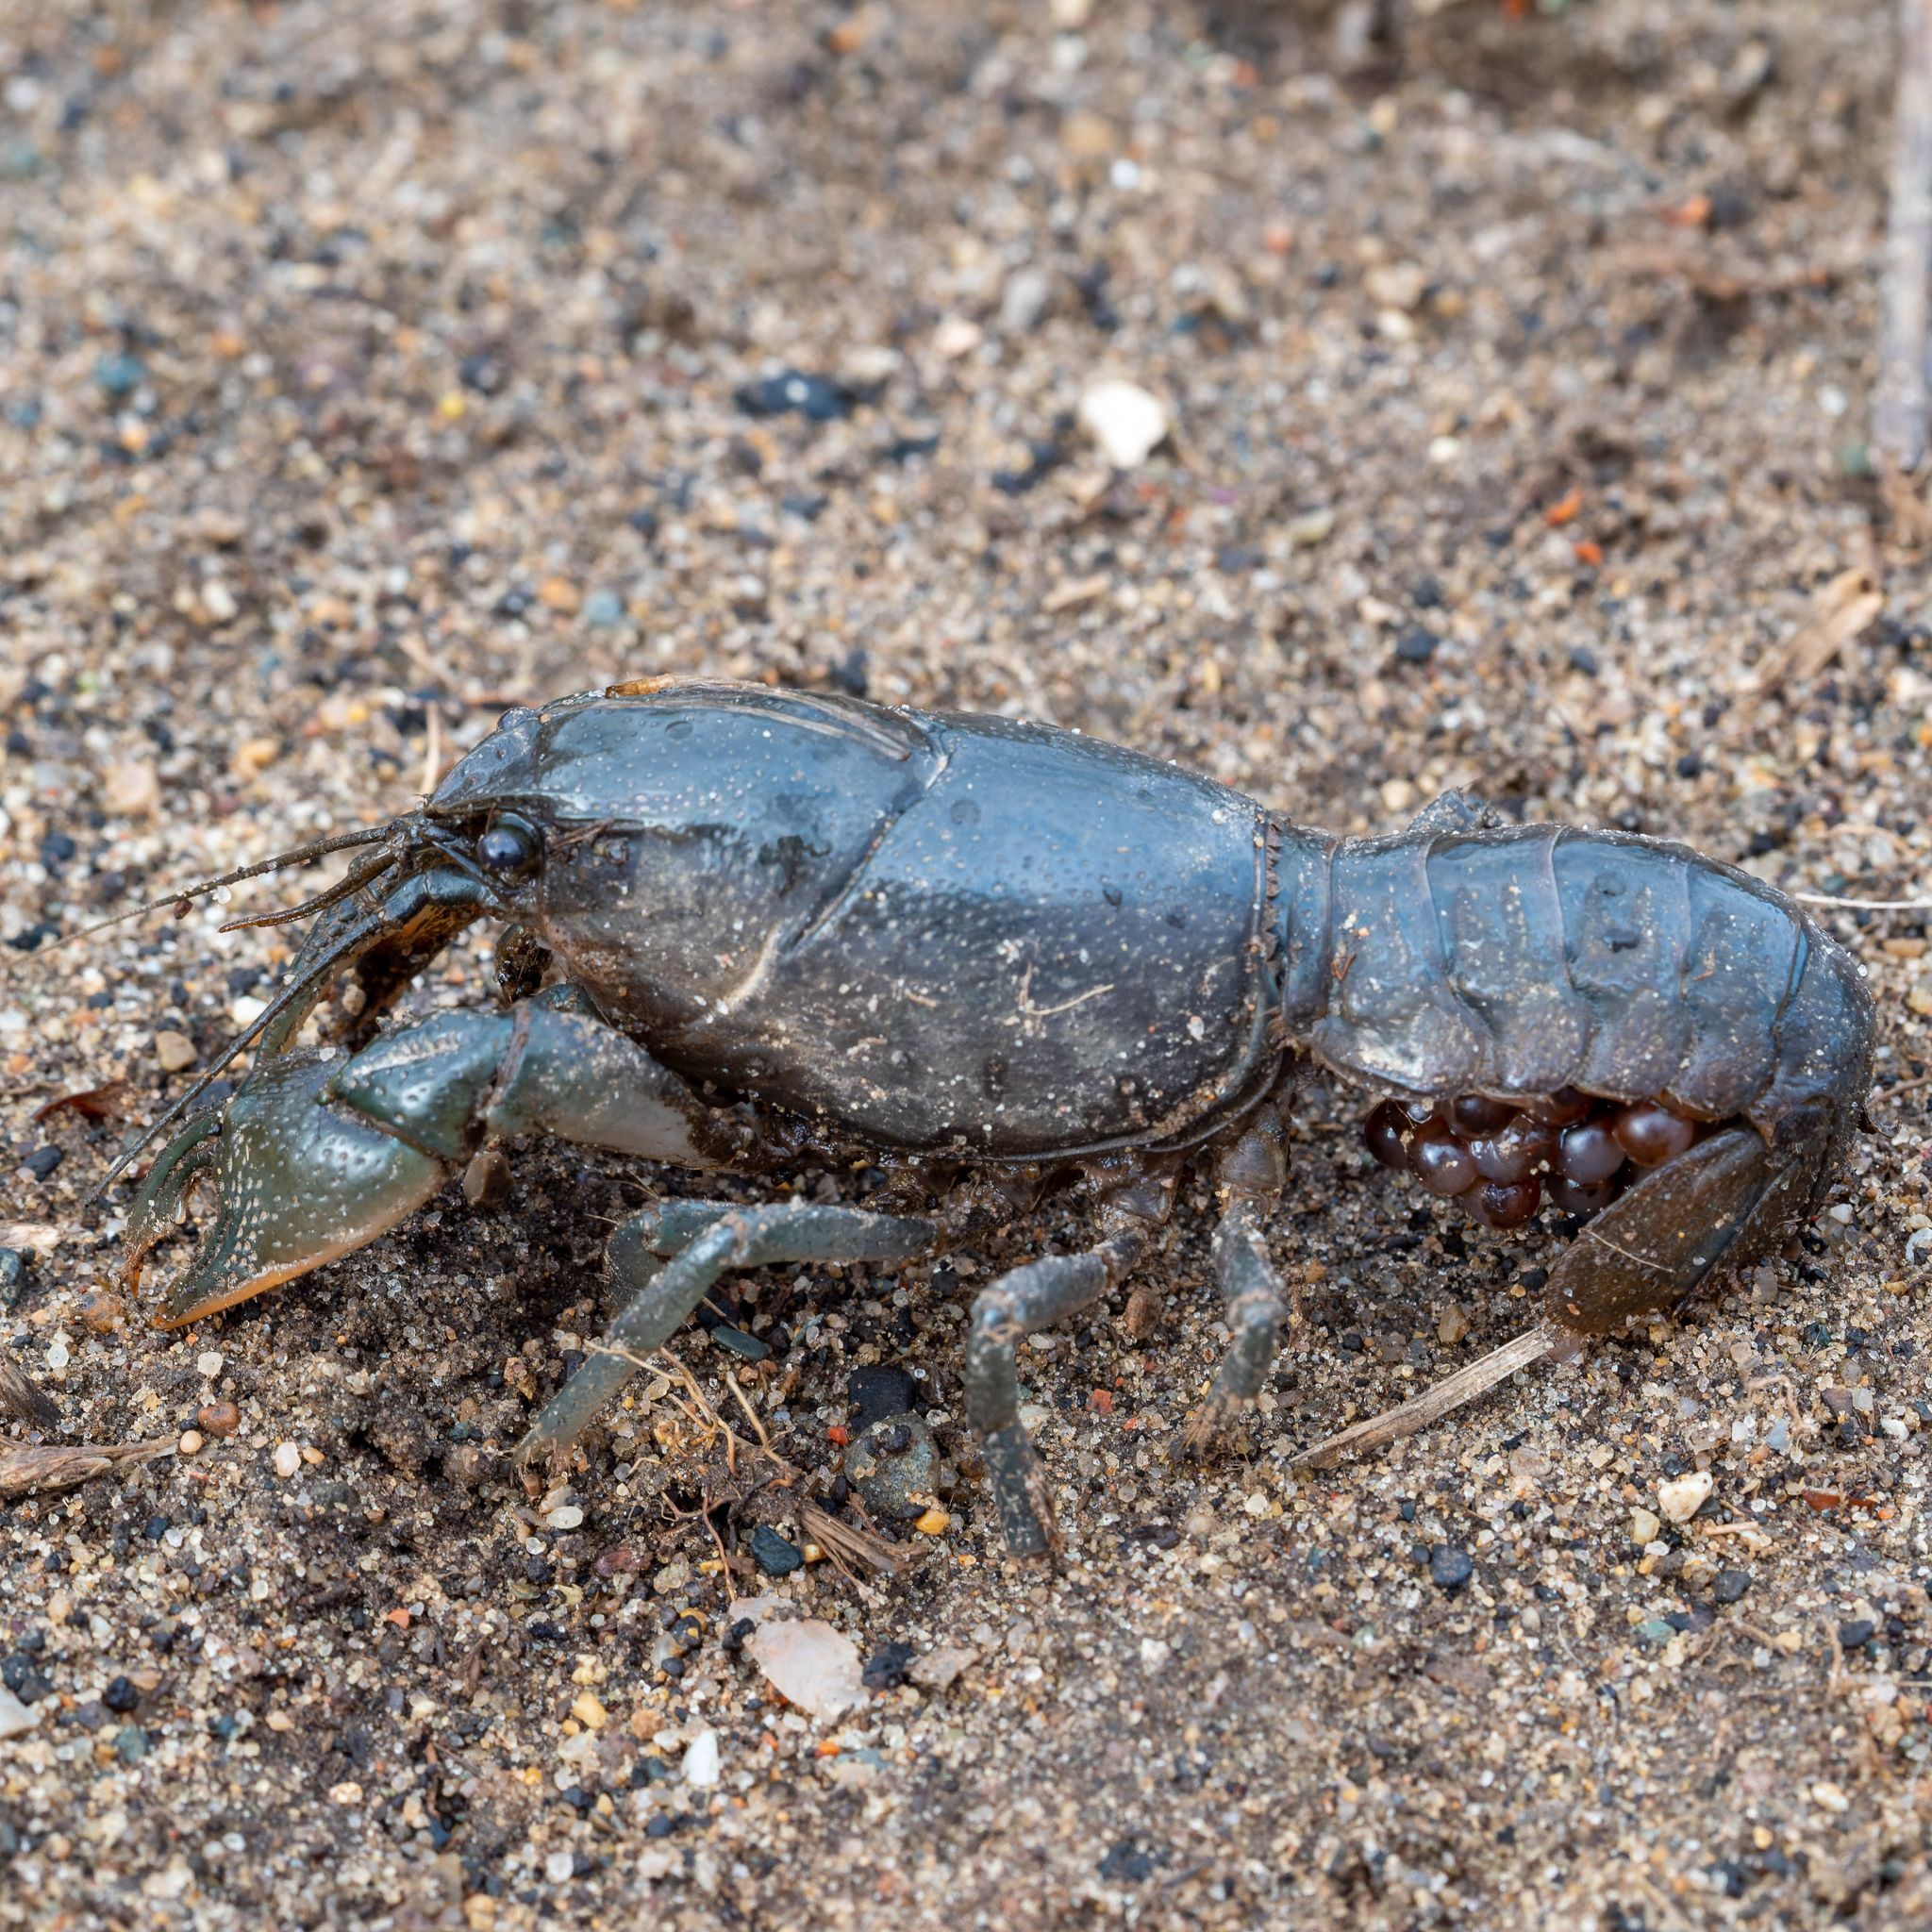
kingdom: Animalia
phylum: Arthropoda
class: Malacostraca
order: Decapoda
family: Cambaridae
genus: Creaserinus
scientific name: Creaserinus fodiens
